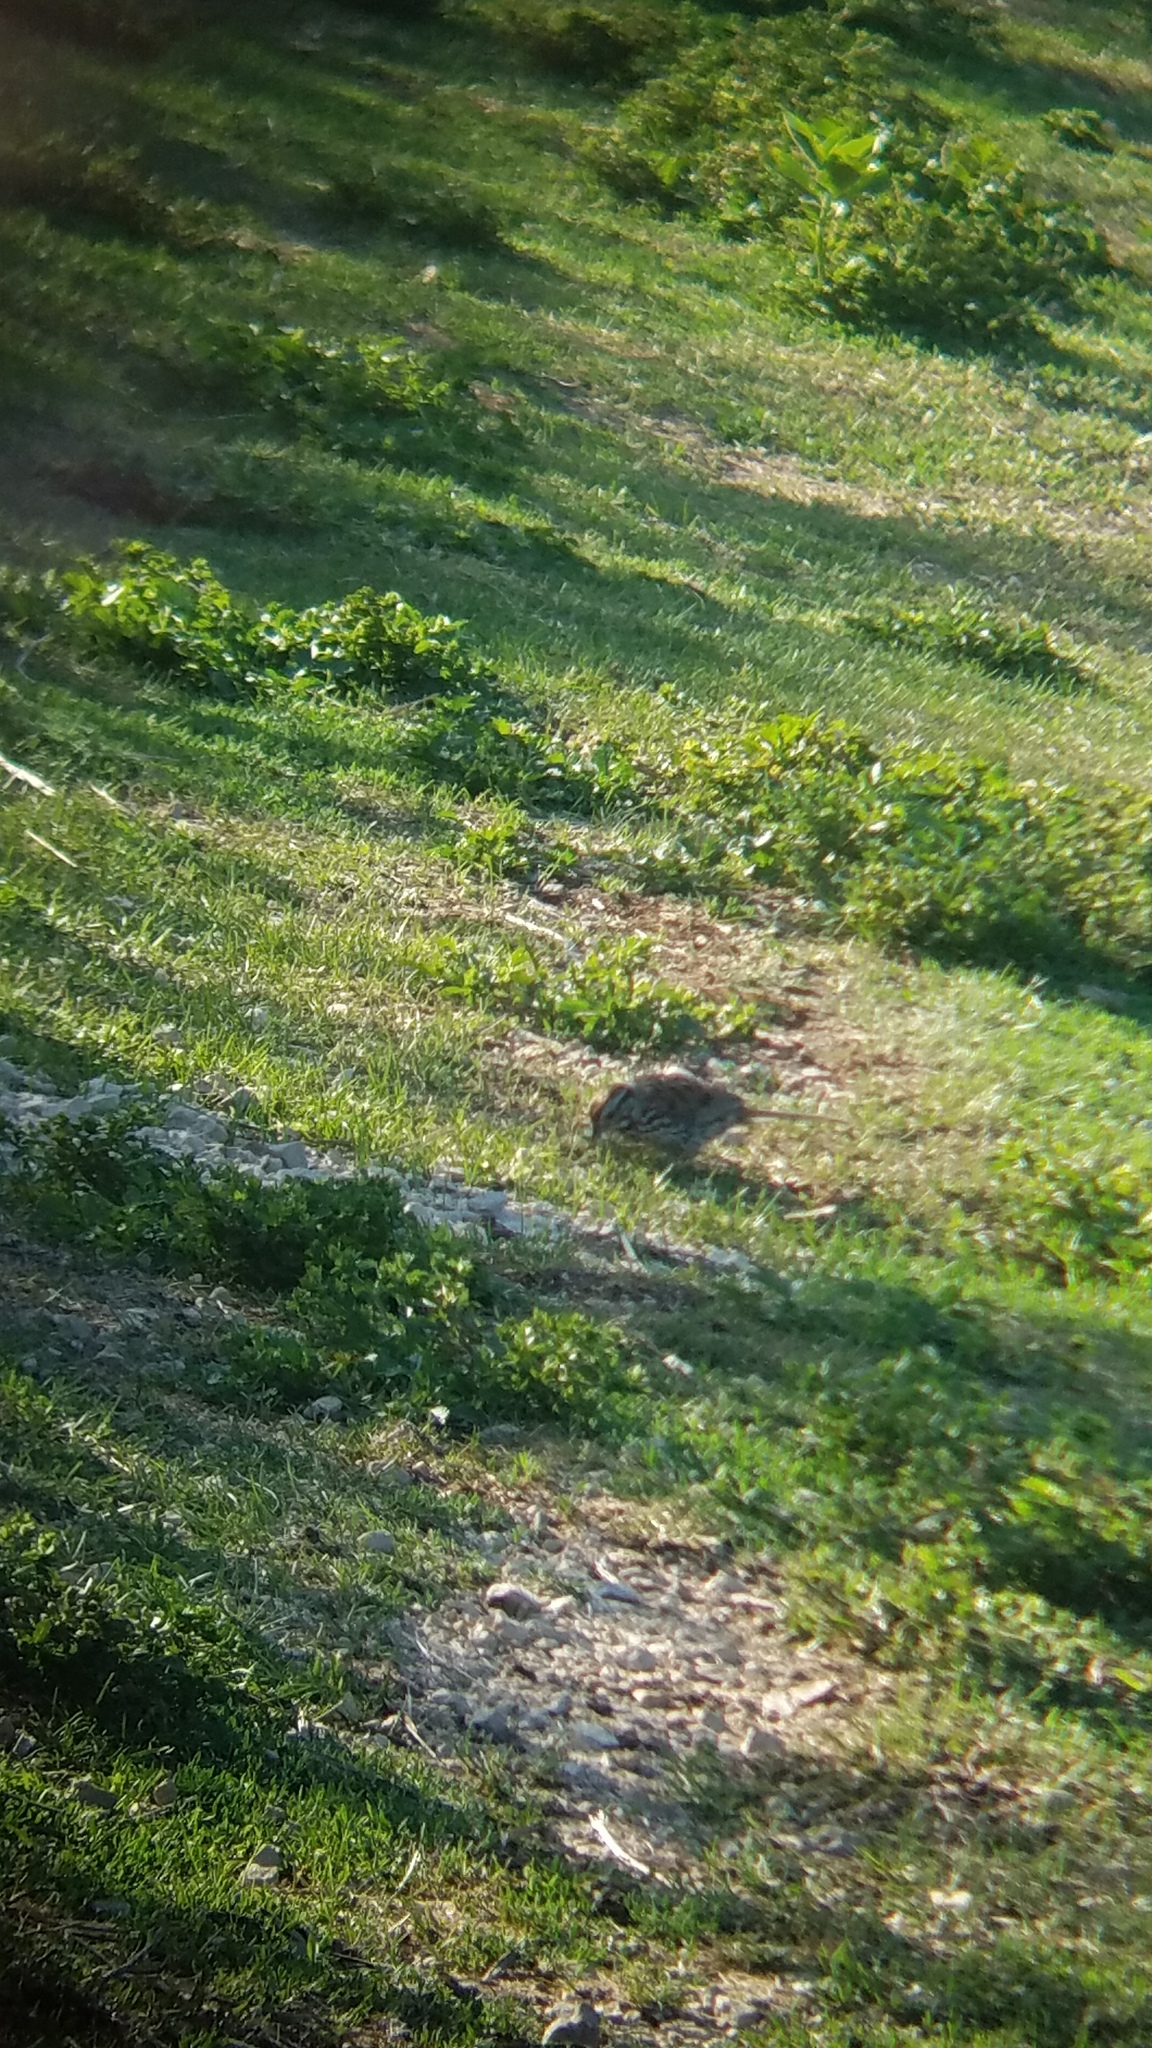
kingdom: Animalia
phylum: Chordata
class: Aves
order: Passeriformes
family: Passerellidae
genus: Melospiza
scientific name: Melospiza melodia
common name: Song sparrow
